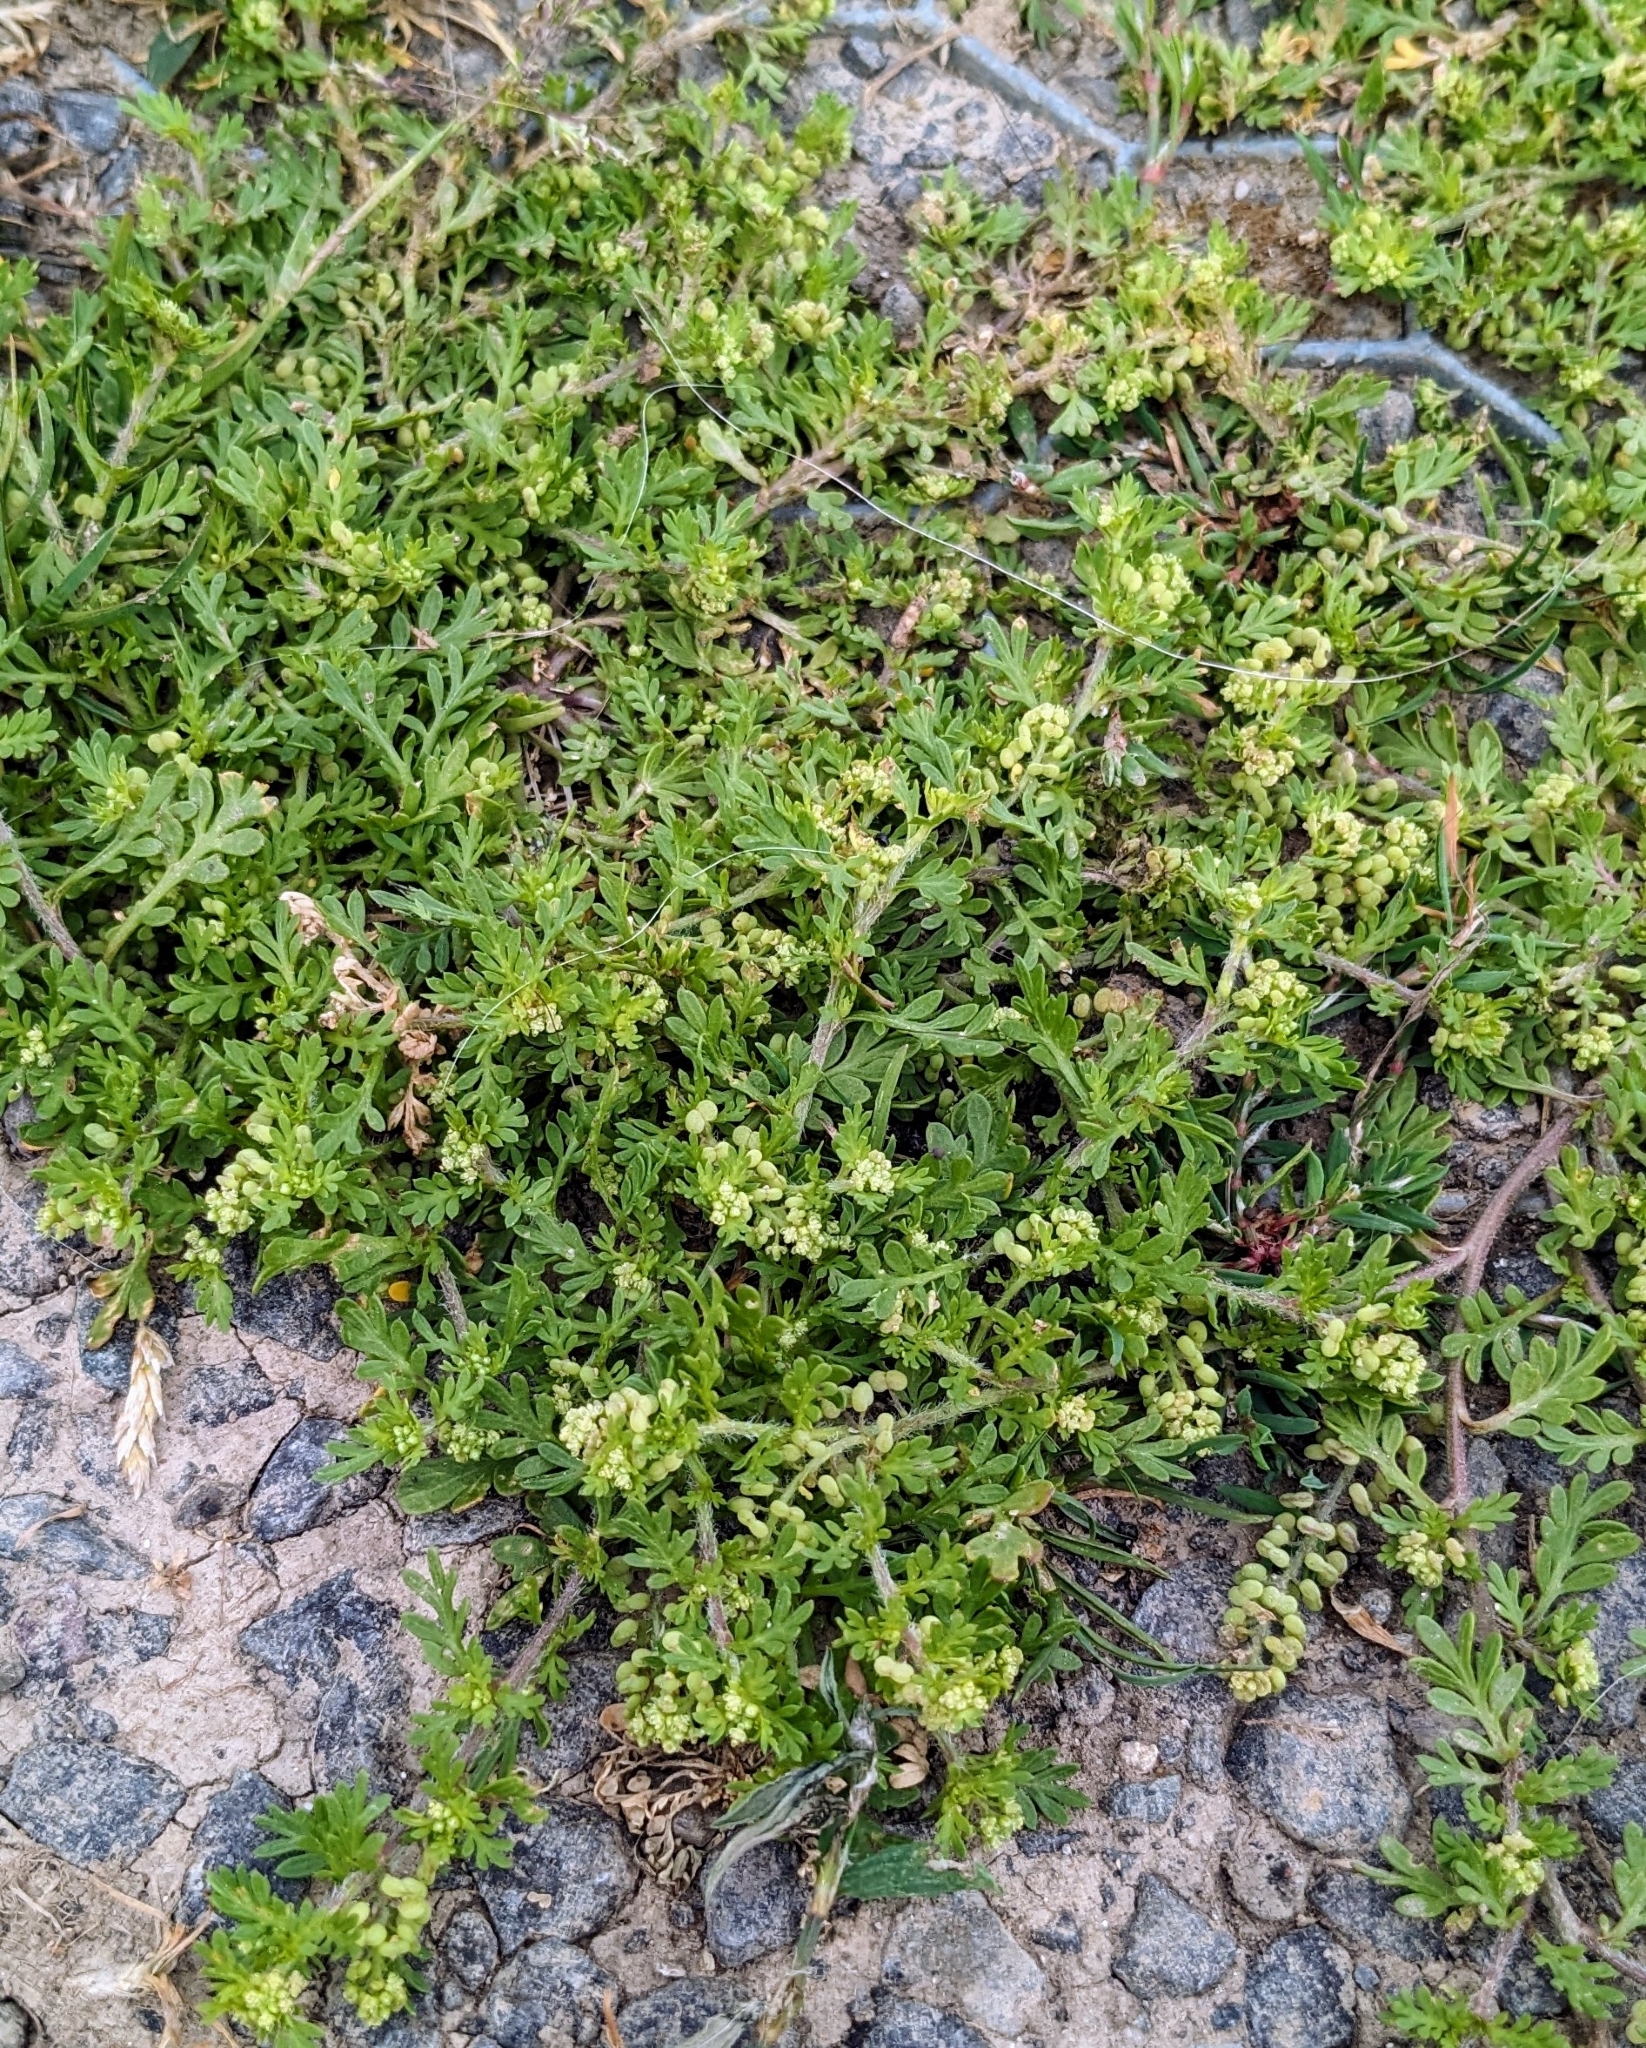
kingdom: Plantae
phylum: Tracheophyta
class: Magnoliopsida
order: Brassicales
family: Brassicaceae
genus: Lepidium
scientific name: Lepidium didymum
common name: Lesser swinecress
